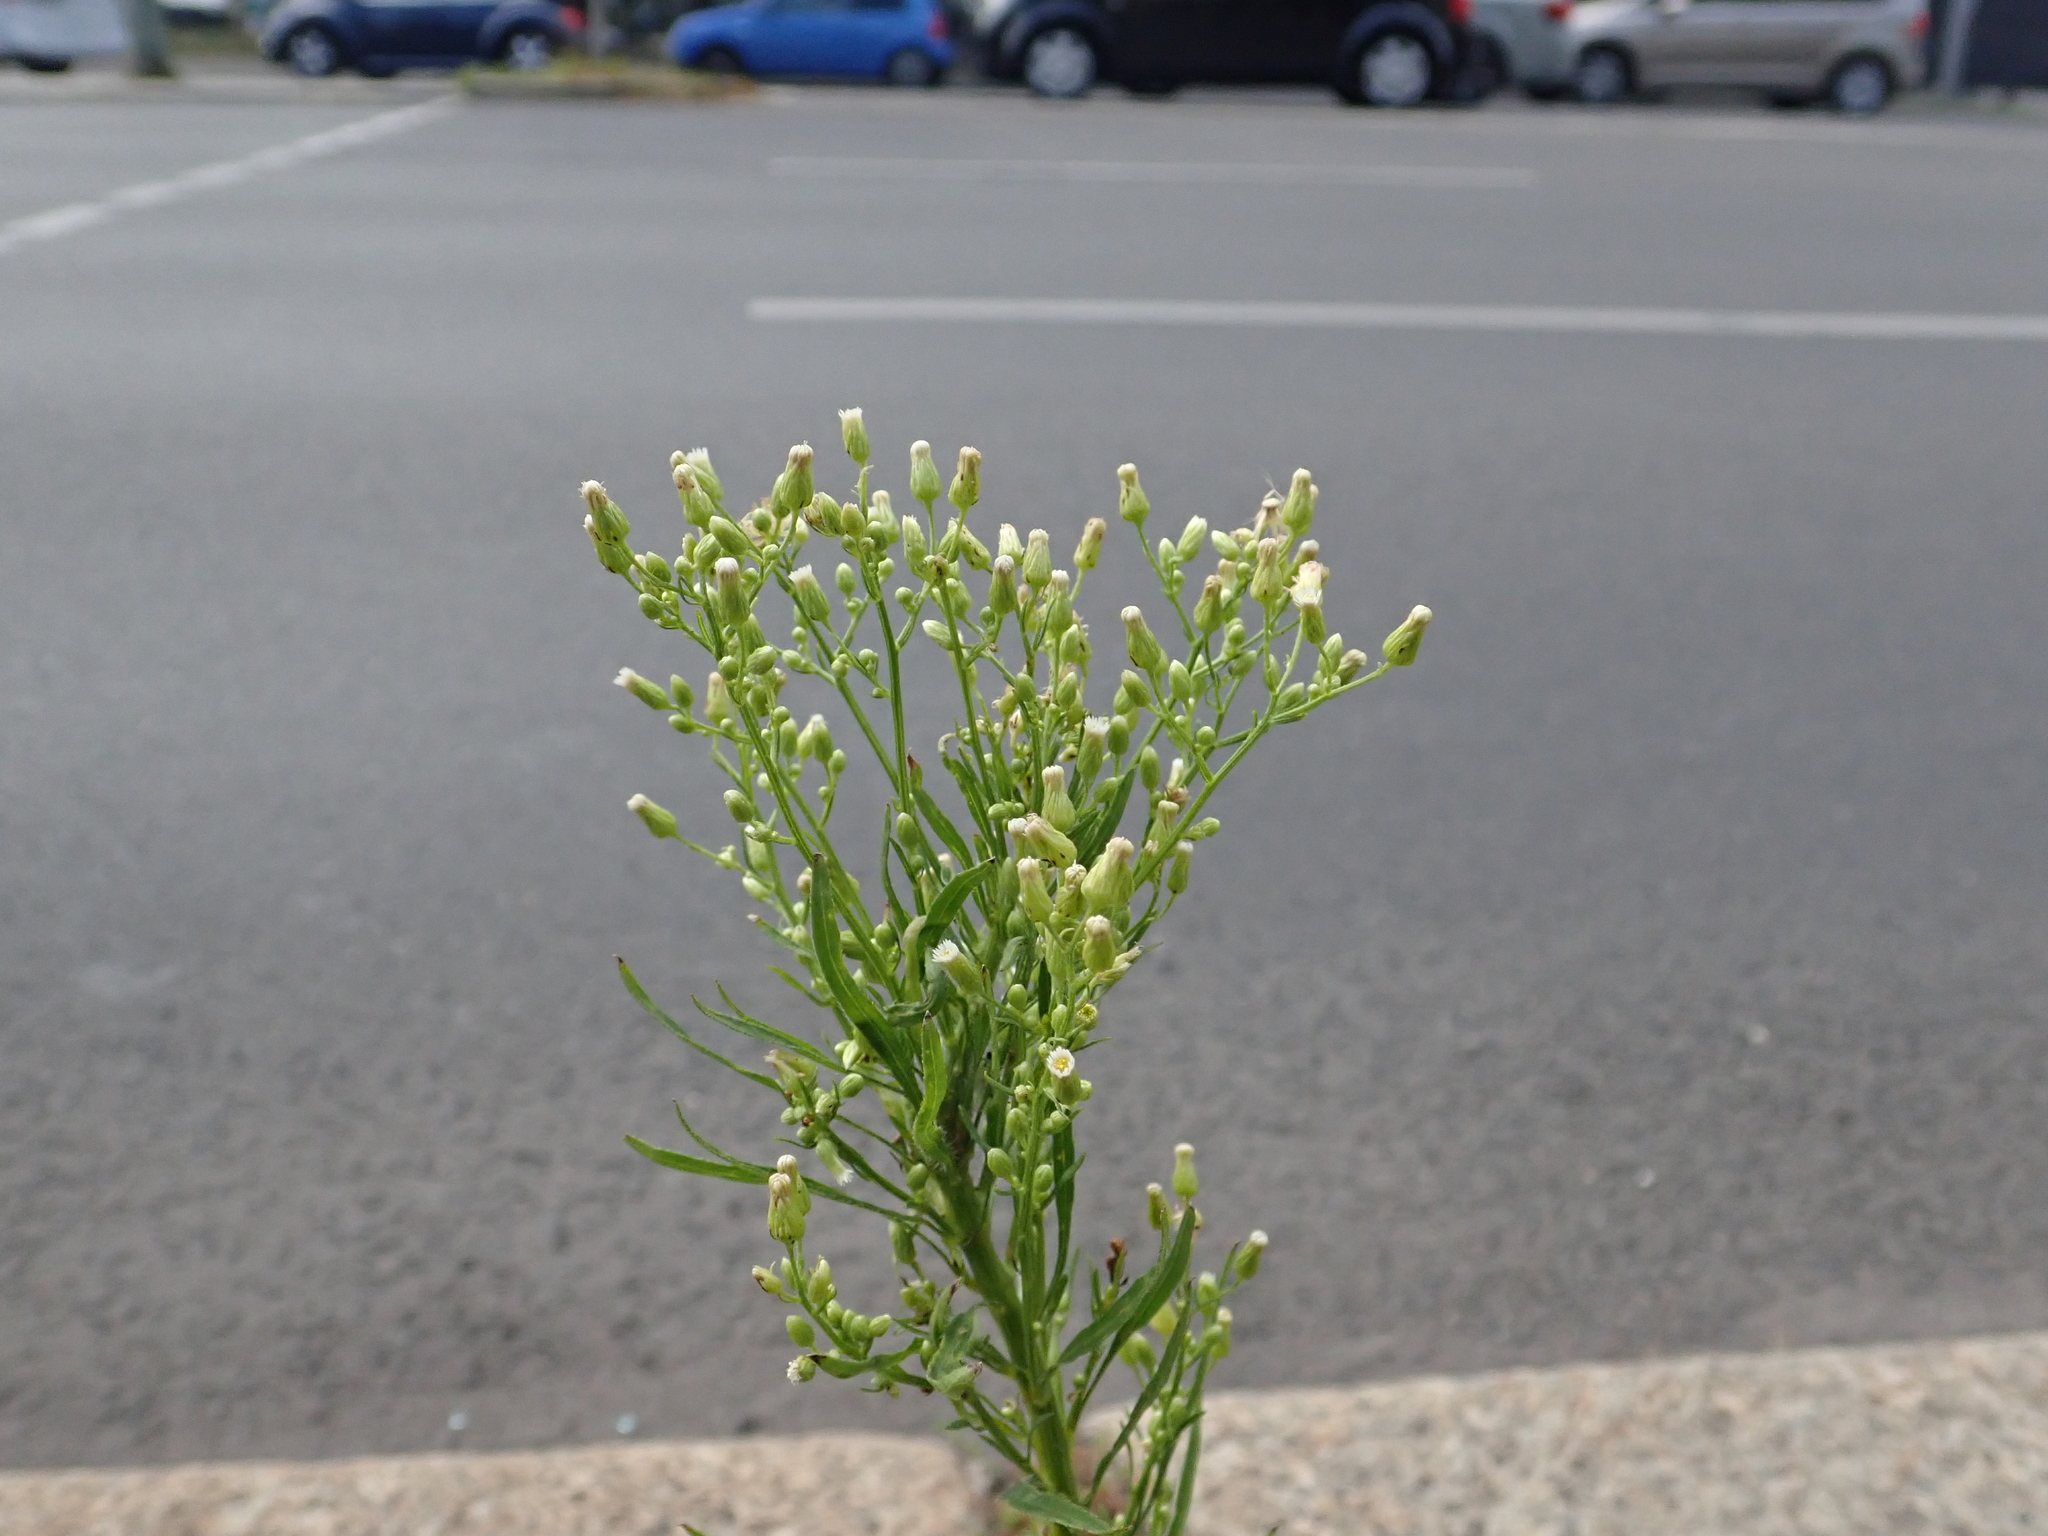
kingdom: Plantae
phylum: Tracheophyta
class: Magnoliopsida
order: Asterales
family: Asteraceae
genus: Erigeron
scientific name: Erigeron canadensis
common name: Canadian fleabane
